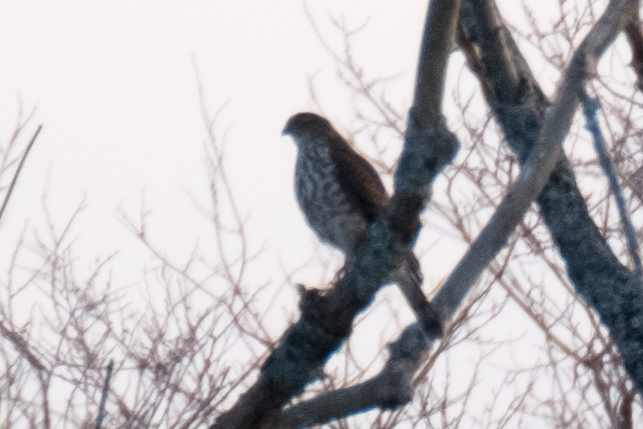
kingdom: Animalia
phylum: Chordata
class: Aves
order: Accipitriformes
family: Accipitridae
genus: Accipiter
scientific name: Accipiter striatus
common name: Sharp-shinned hawk
